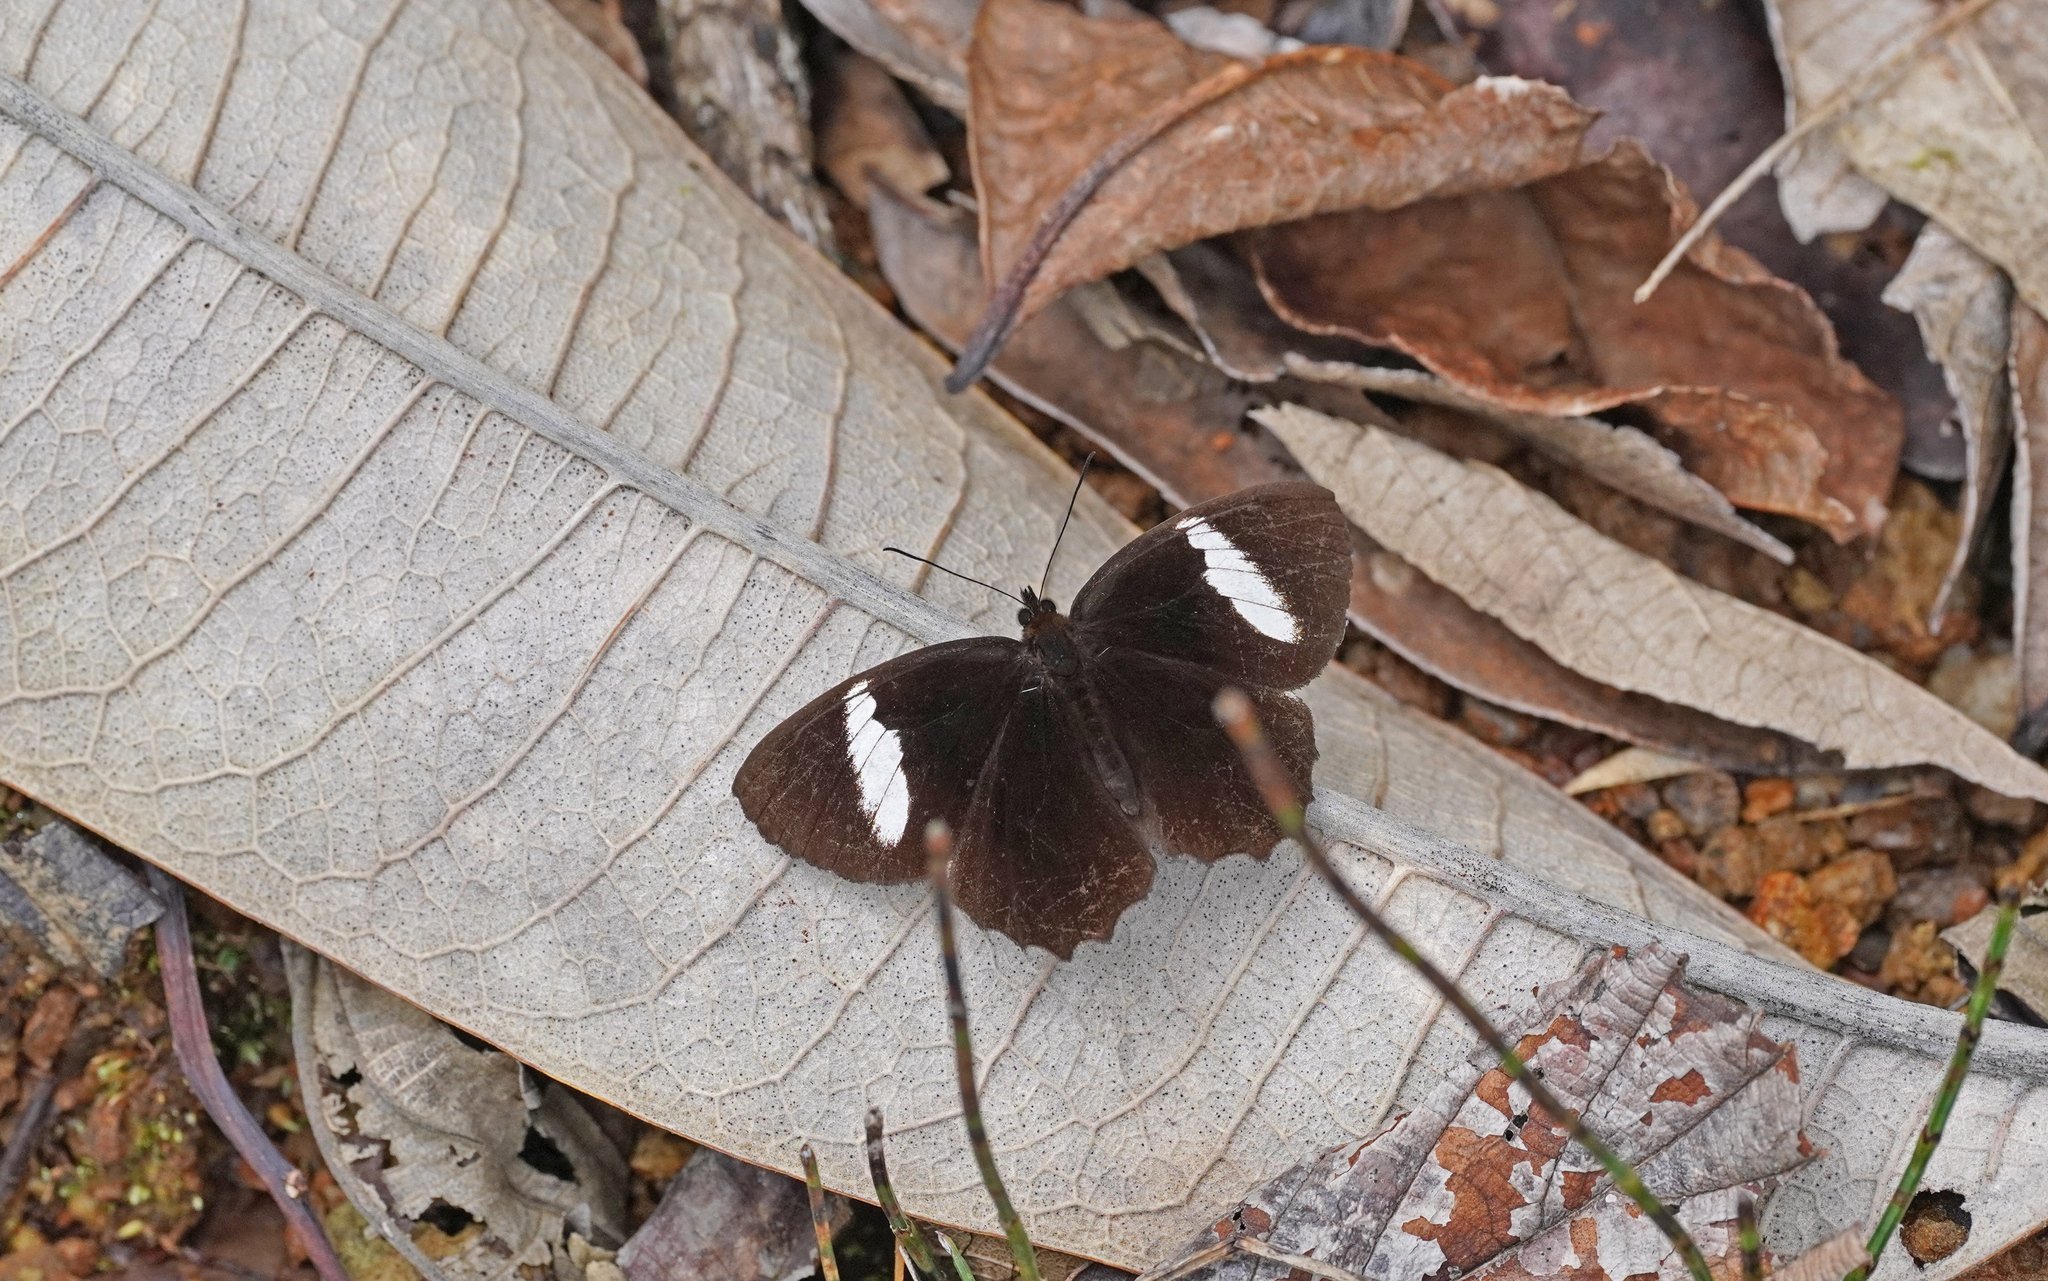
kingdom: Animalia
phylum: Arthropoda
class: Insecta
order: Lepidoptera
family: Nymphalidae
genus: Pedaliodes
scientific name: Pedaliodes peucestas
